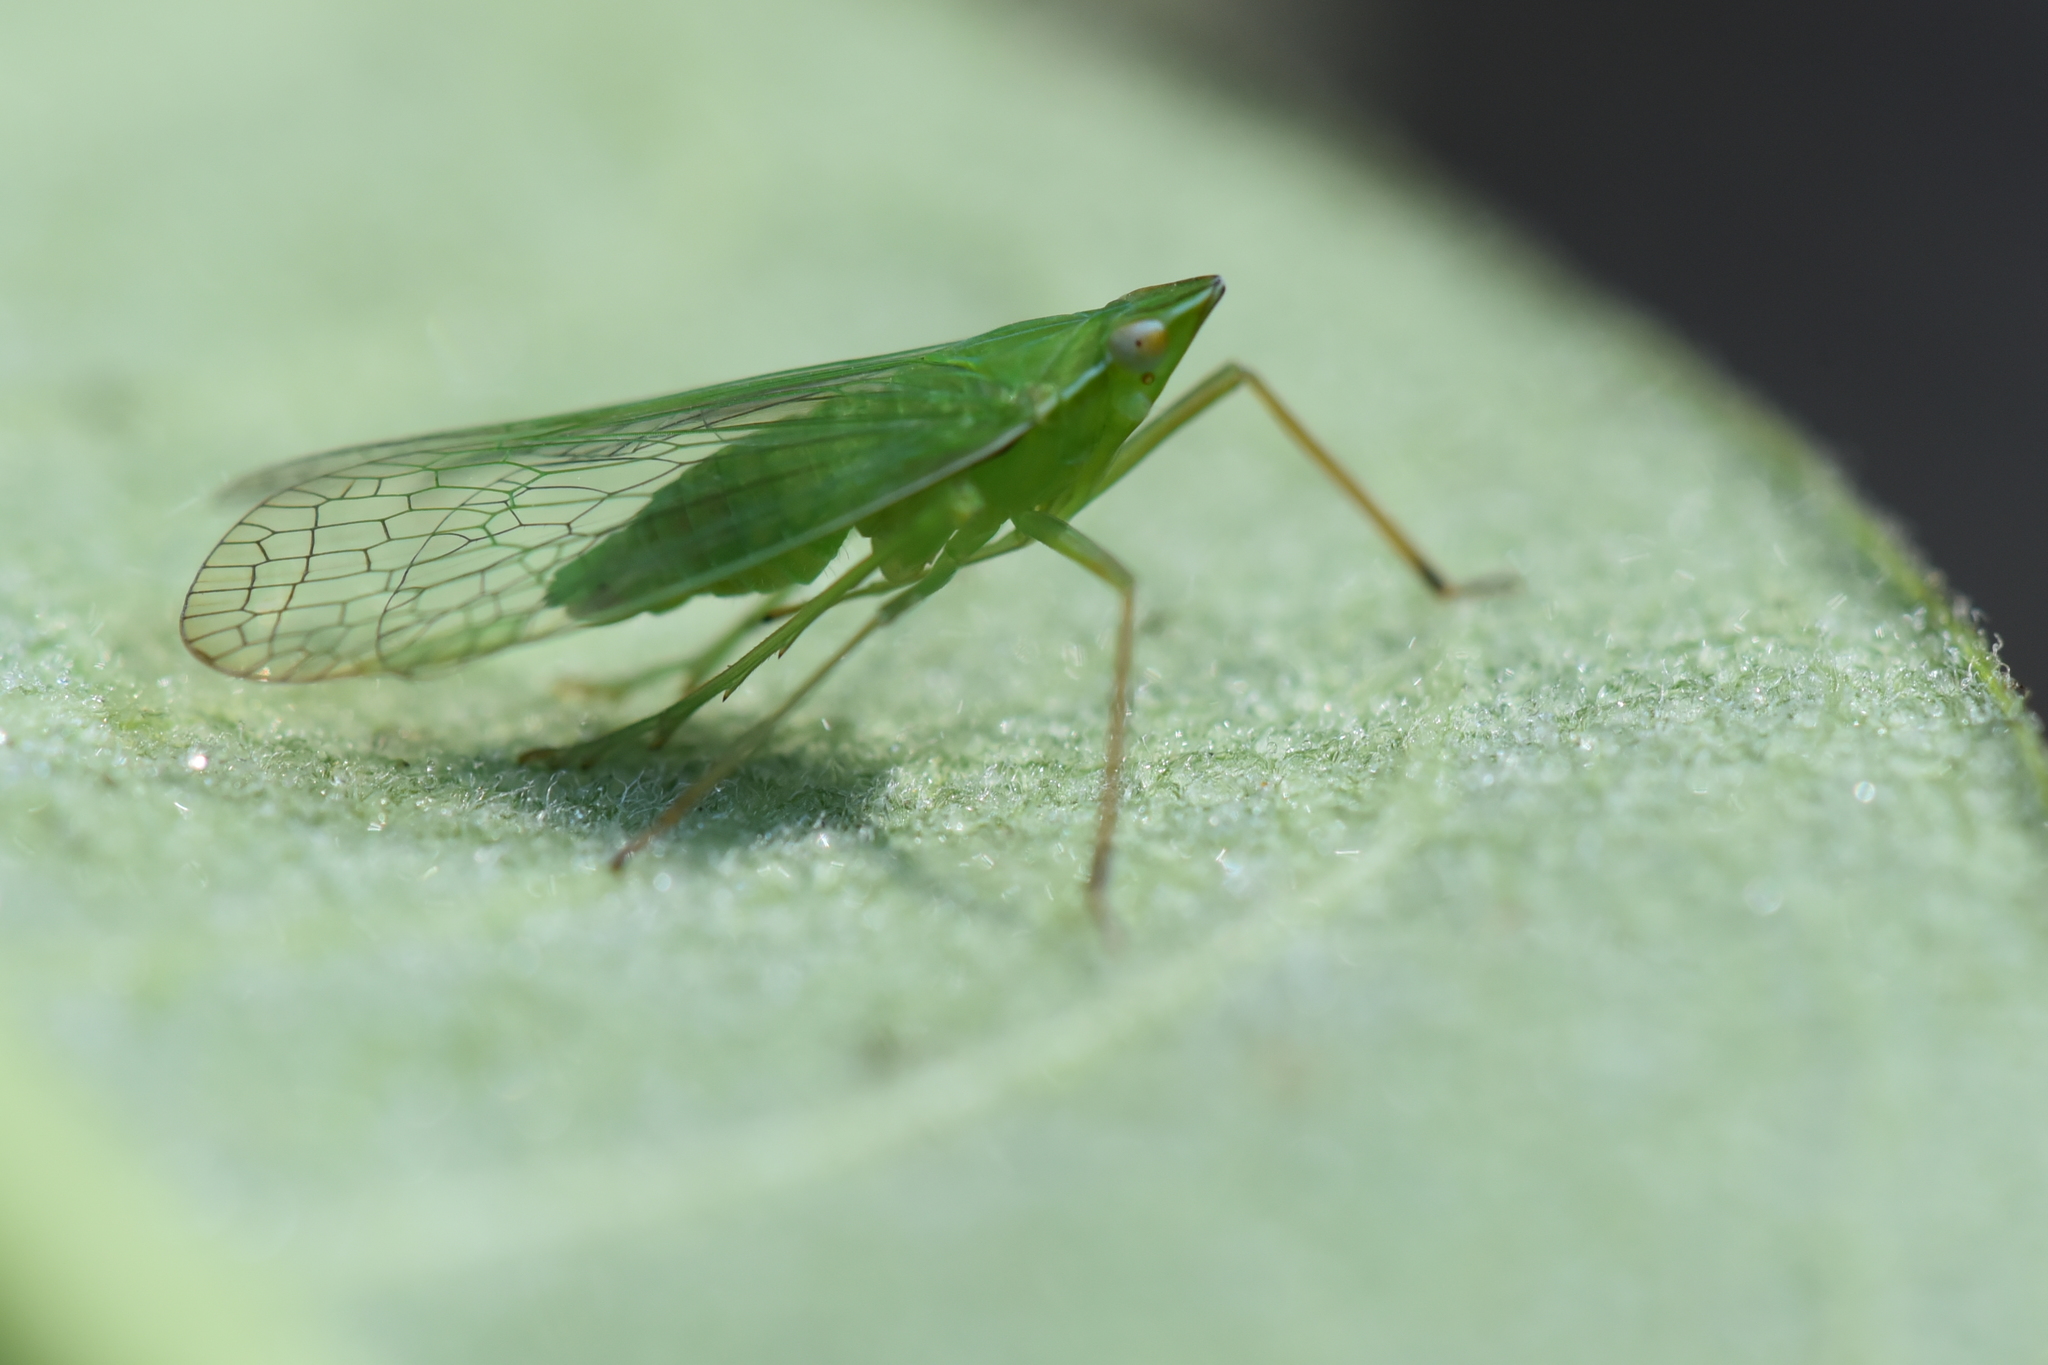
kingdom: Animalia
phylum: Arthropoda
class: Insecta
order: Hemiptera
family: Dictyopharidae
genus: Nersia
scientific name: Nersia florida
